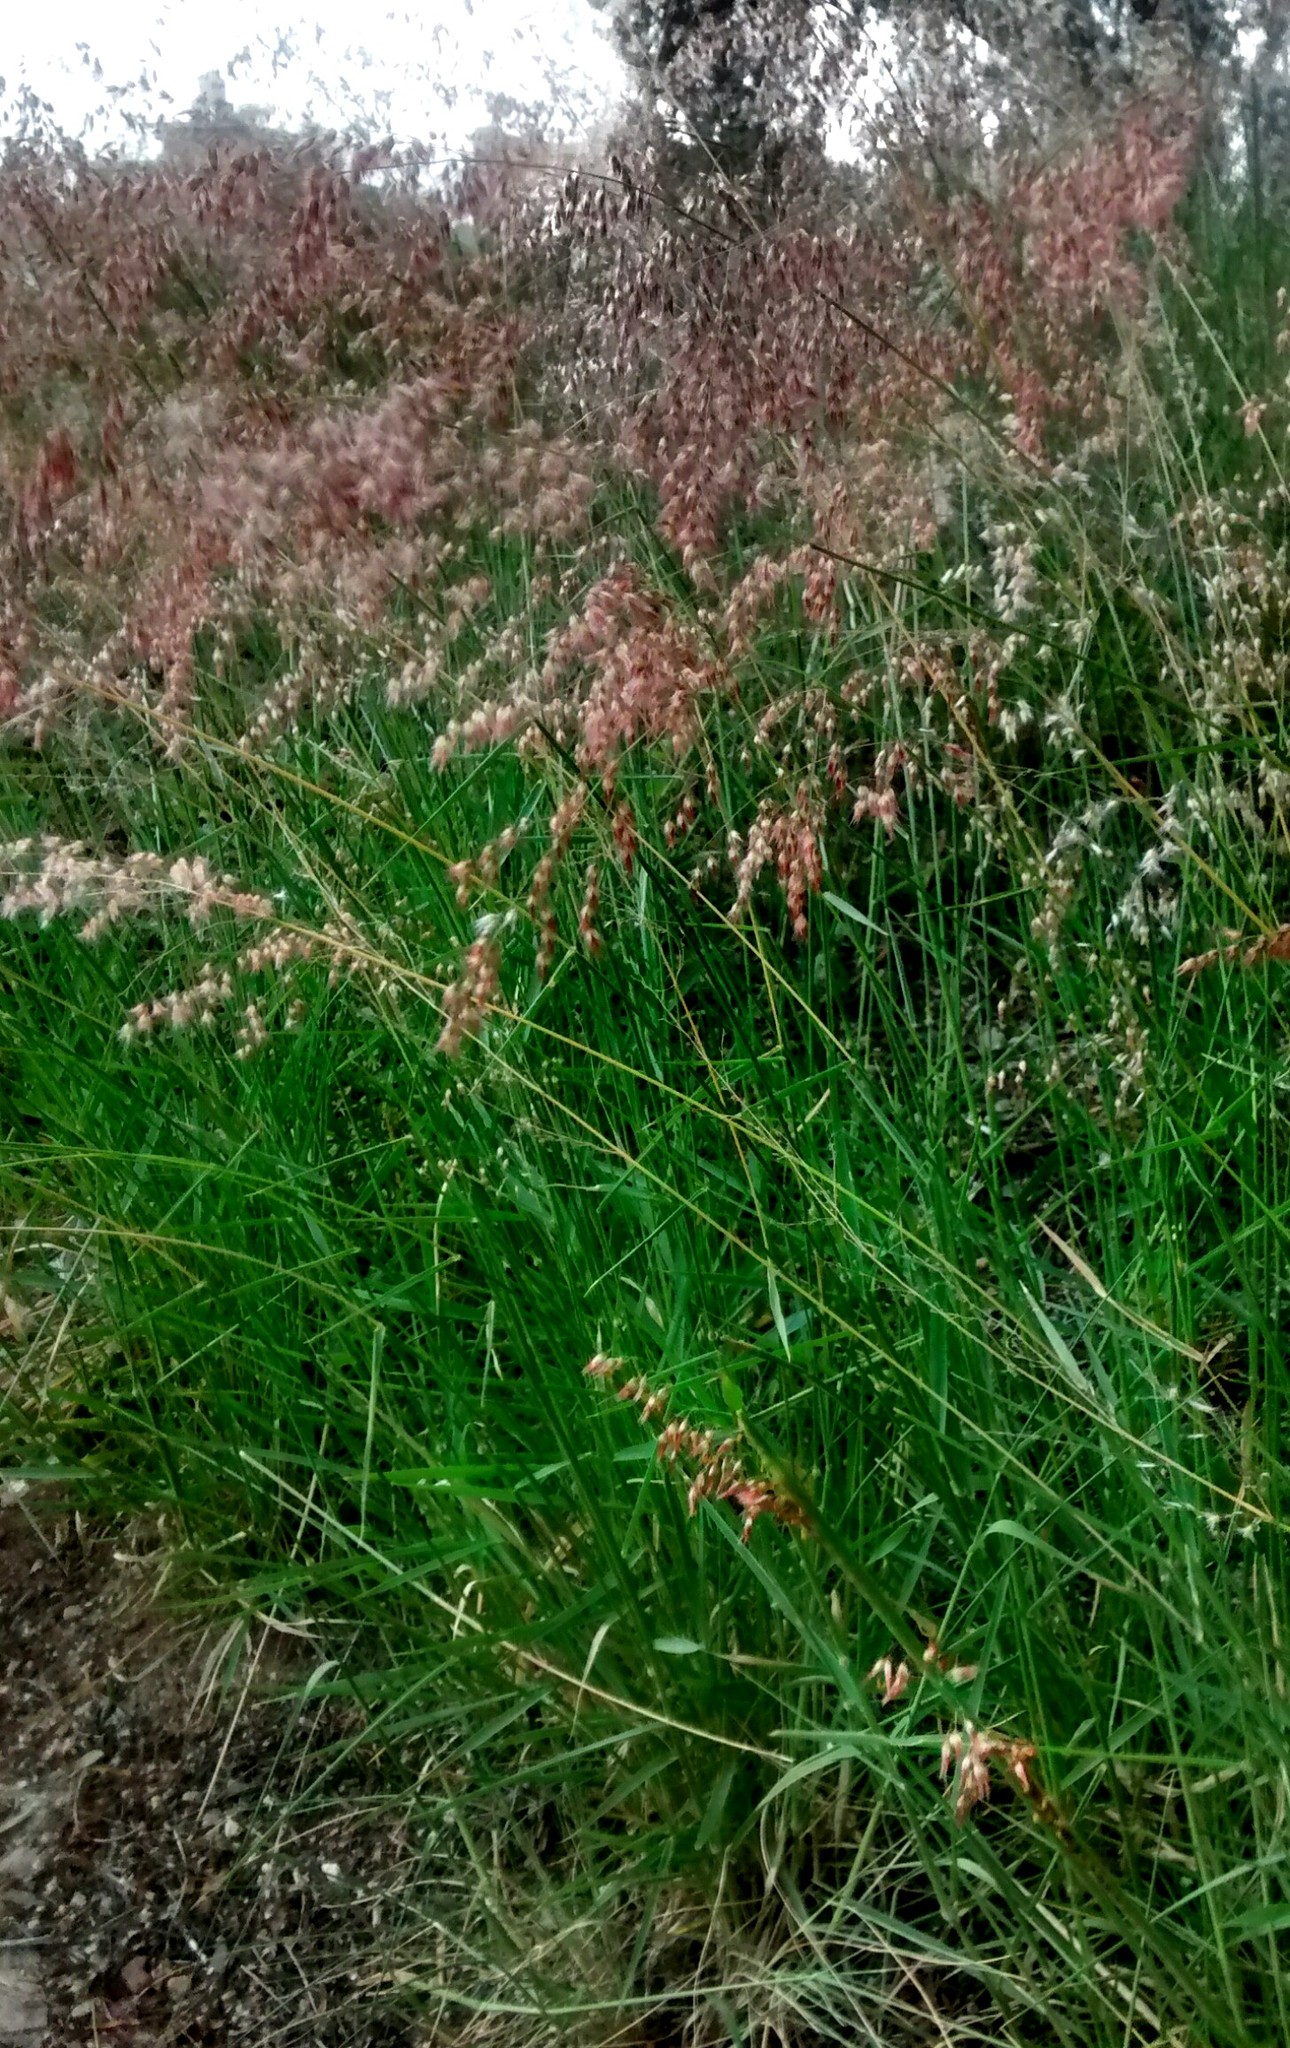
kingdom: Plantae
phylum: Tracheophyta
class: Liliopsida
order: Poales
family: Poaceae
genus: Melinis
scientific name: Melinis repens
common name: Rose natal grass
